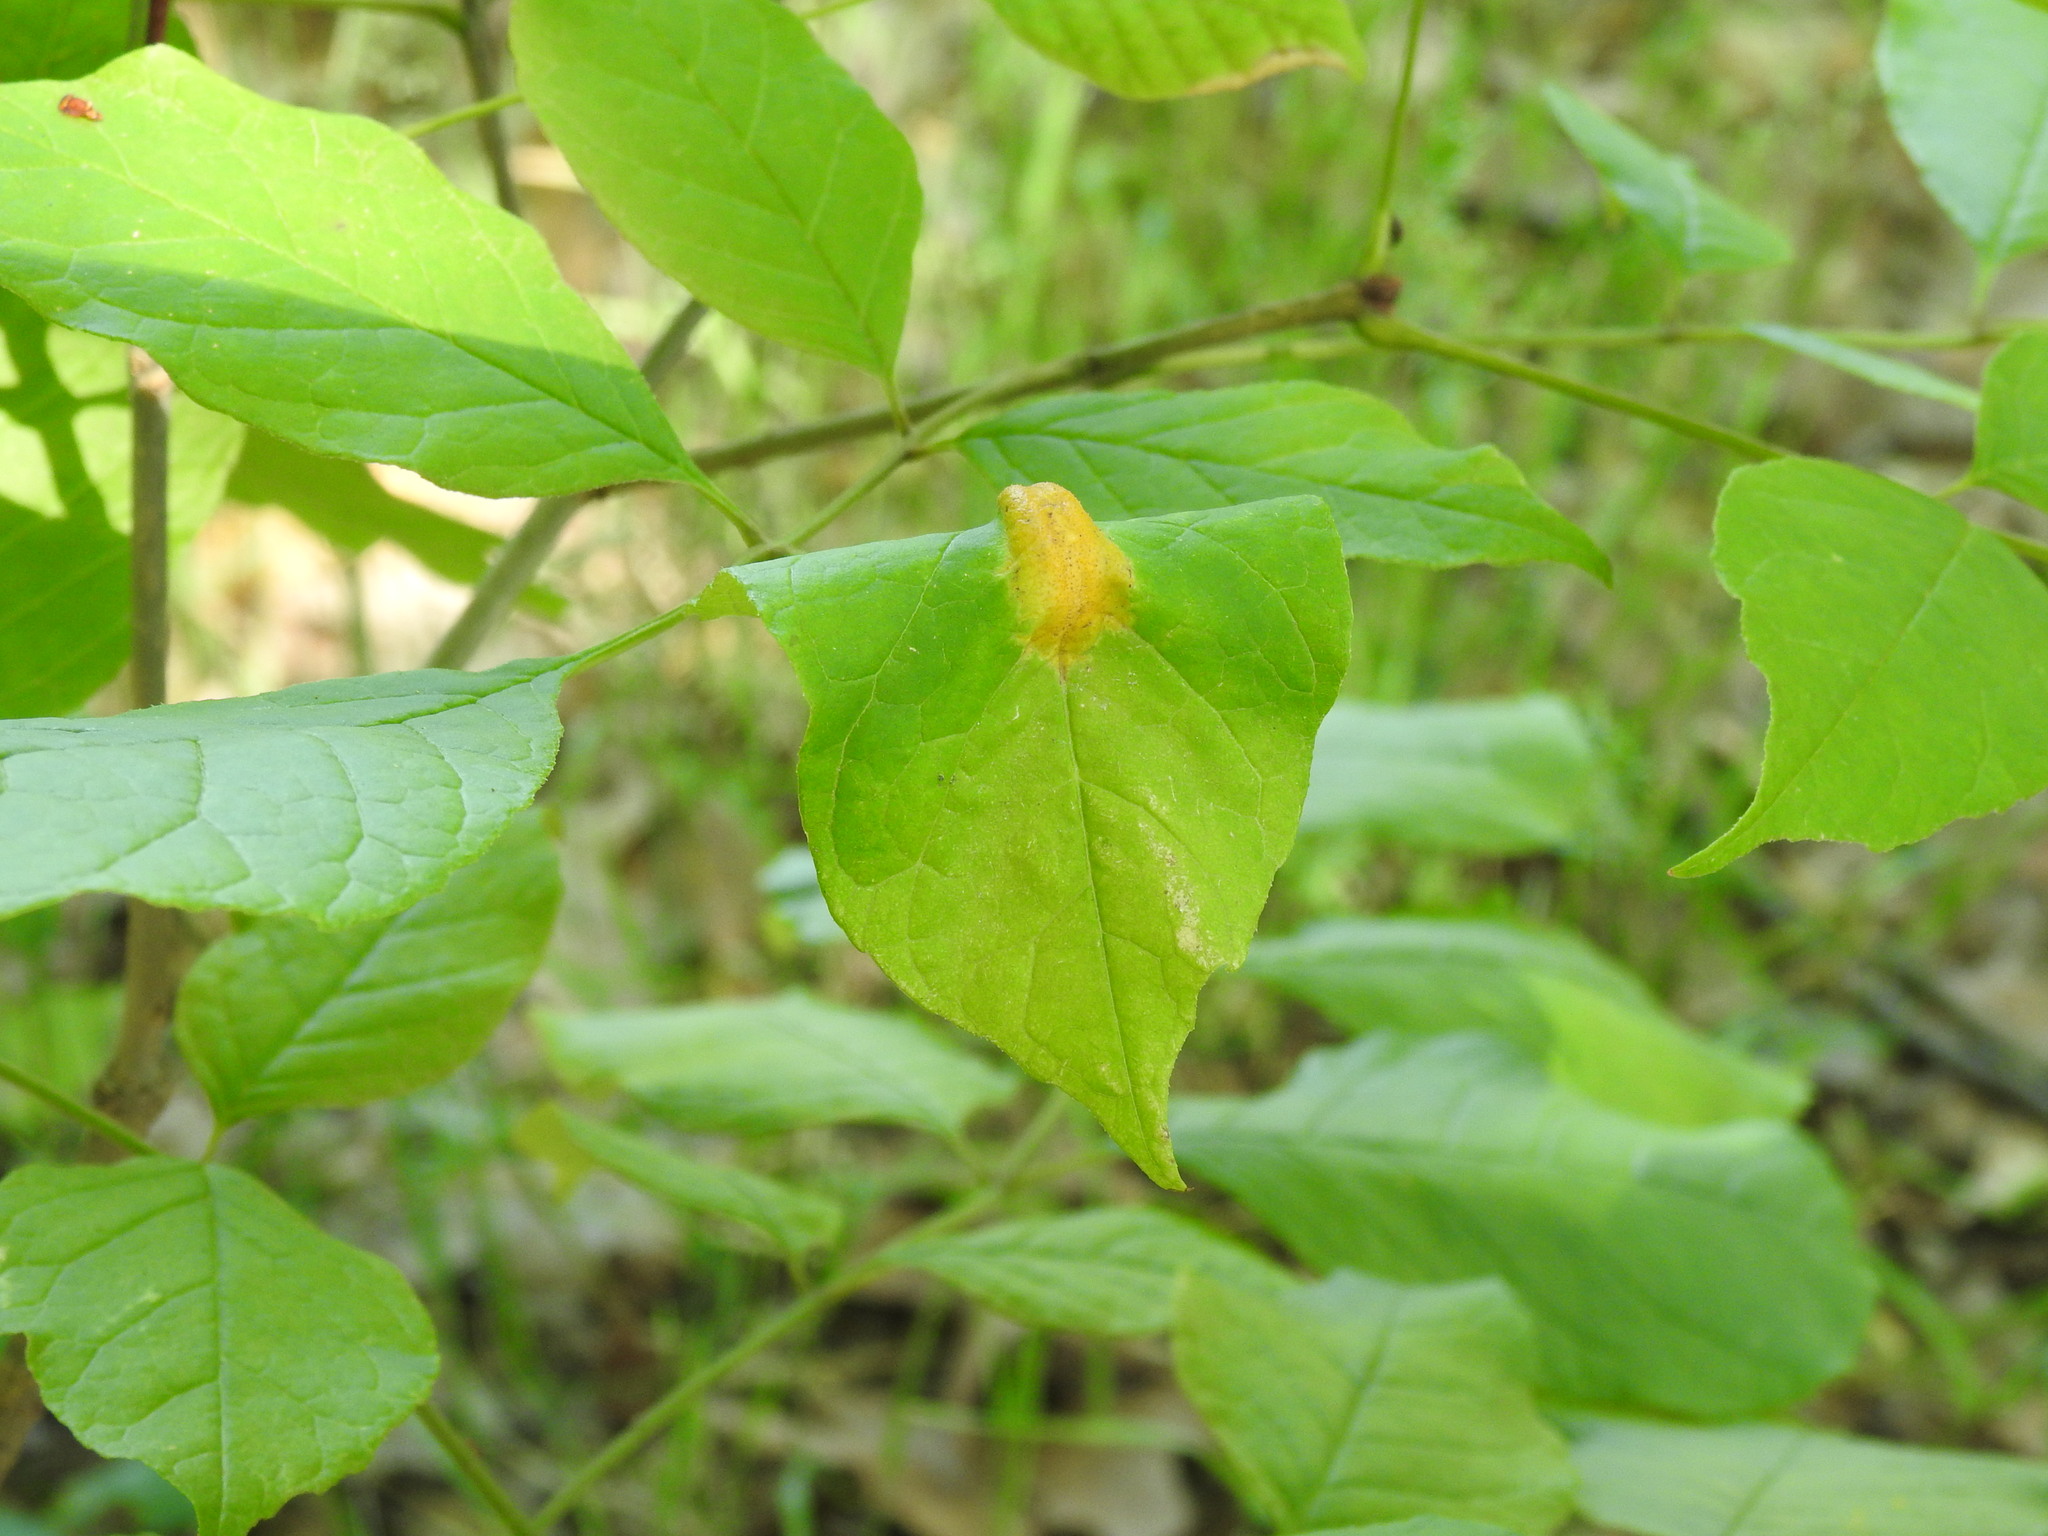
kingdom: Fungi
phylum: Basidiomycota
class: Pucciniomycetes
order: Pucciniales
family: Pucciniaceae
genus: Puccinia
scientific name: Puccinia sparganioidis
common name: Ash rust
